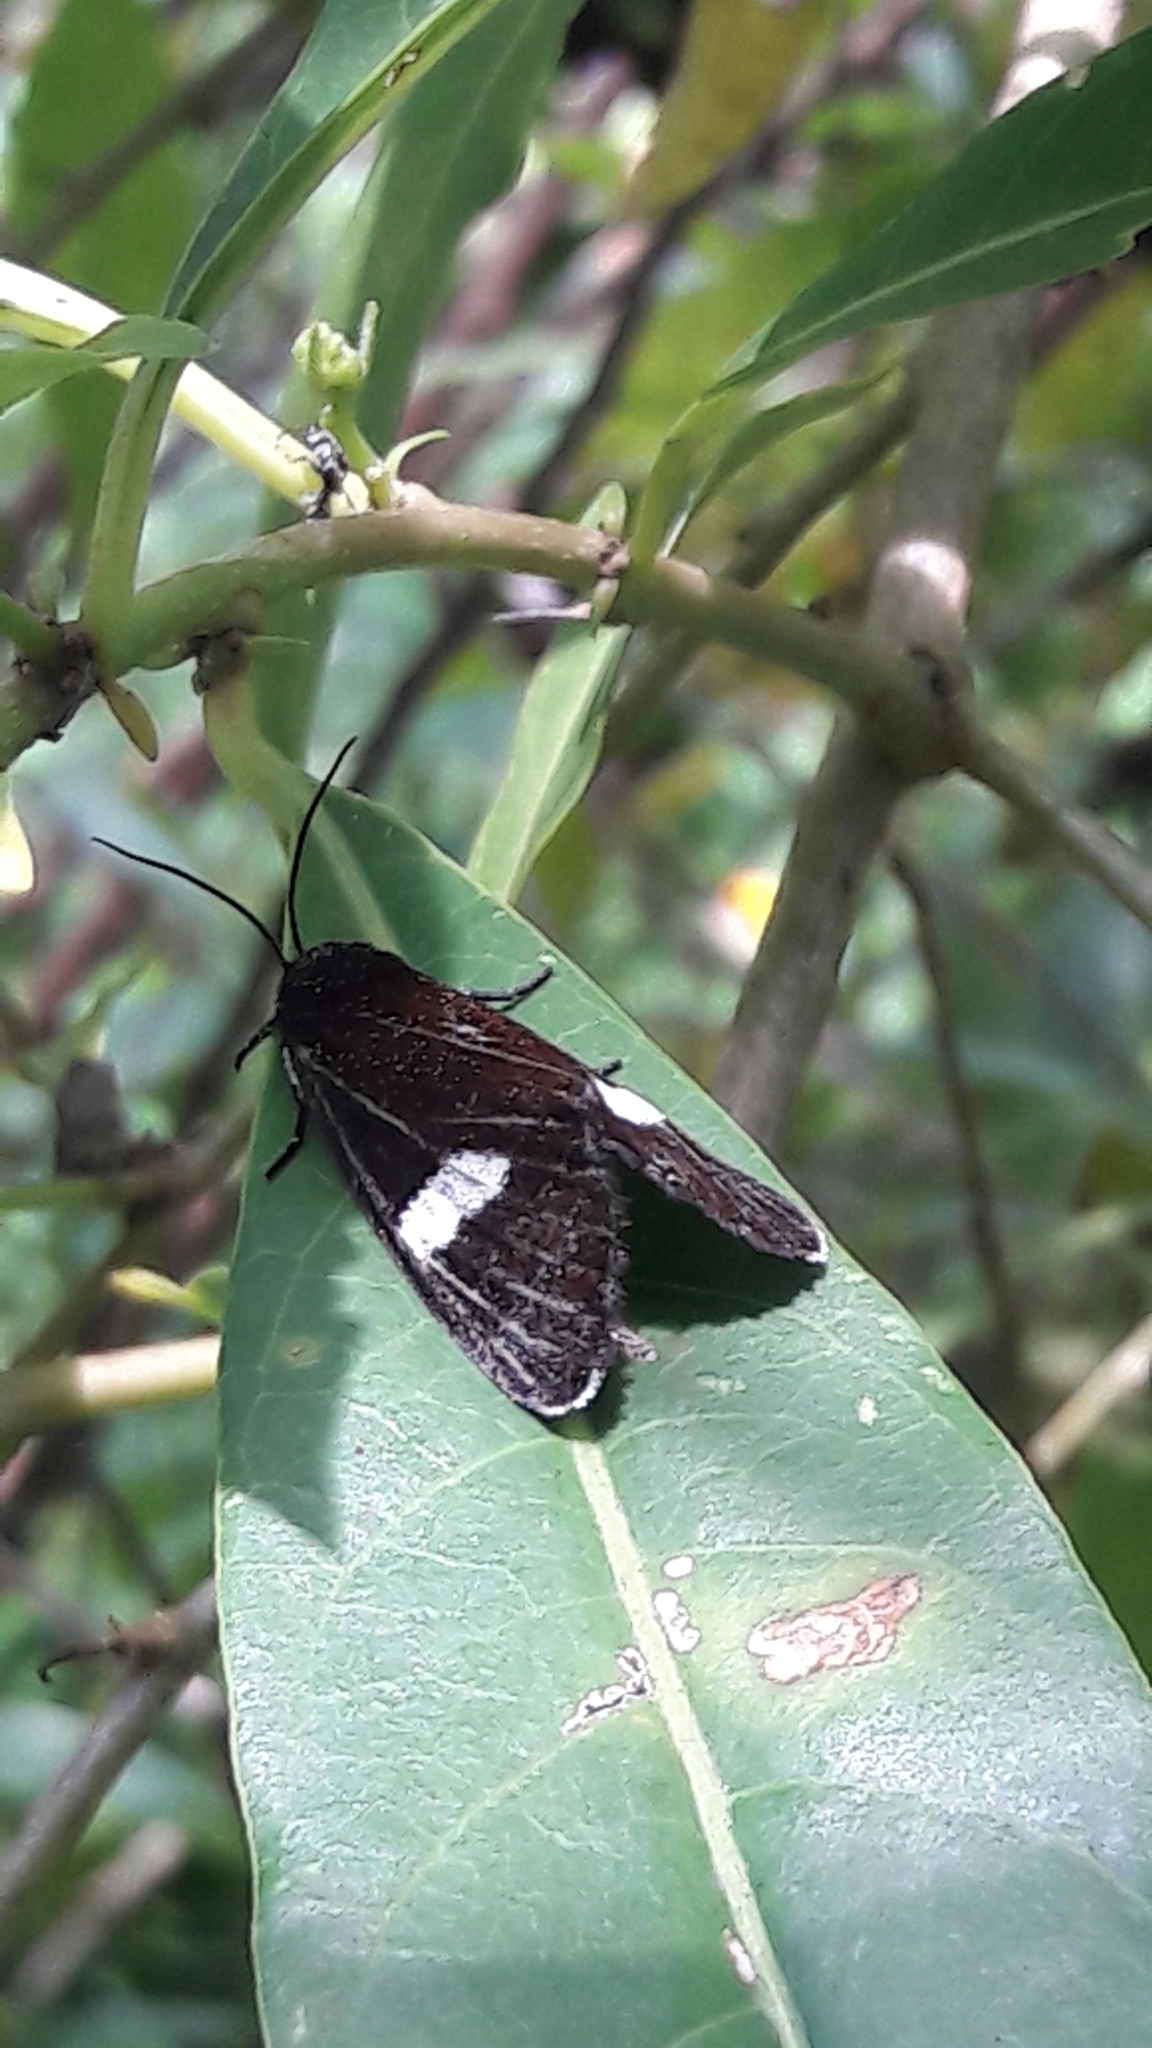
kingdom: Animalia
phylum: Arthropoda
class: Insecta
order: Lepidoptera
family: Noctuidae
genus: Rhosus
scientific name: Rhosus ovata
